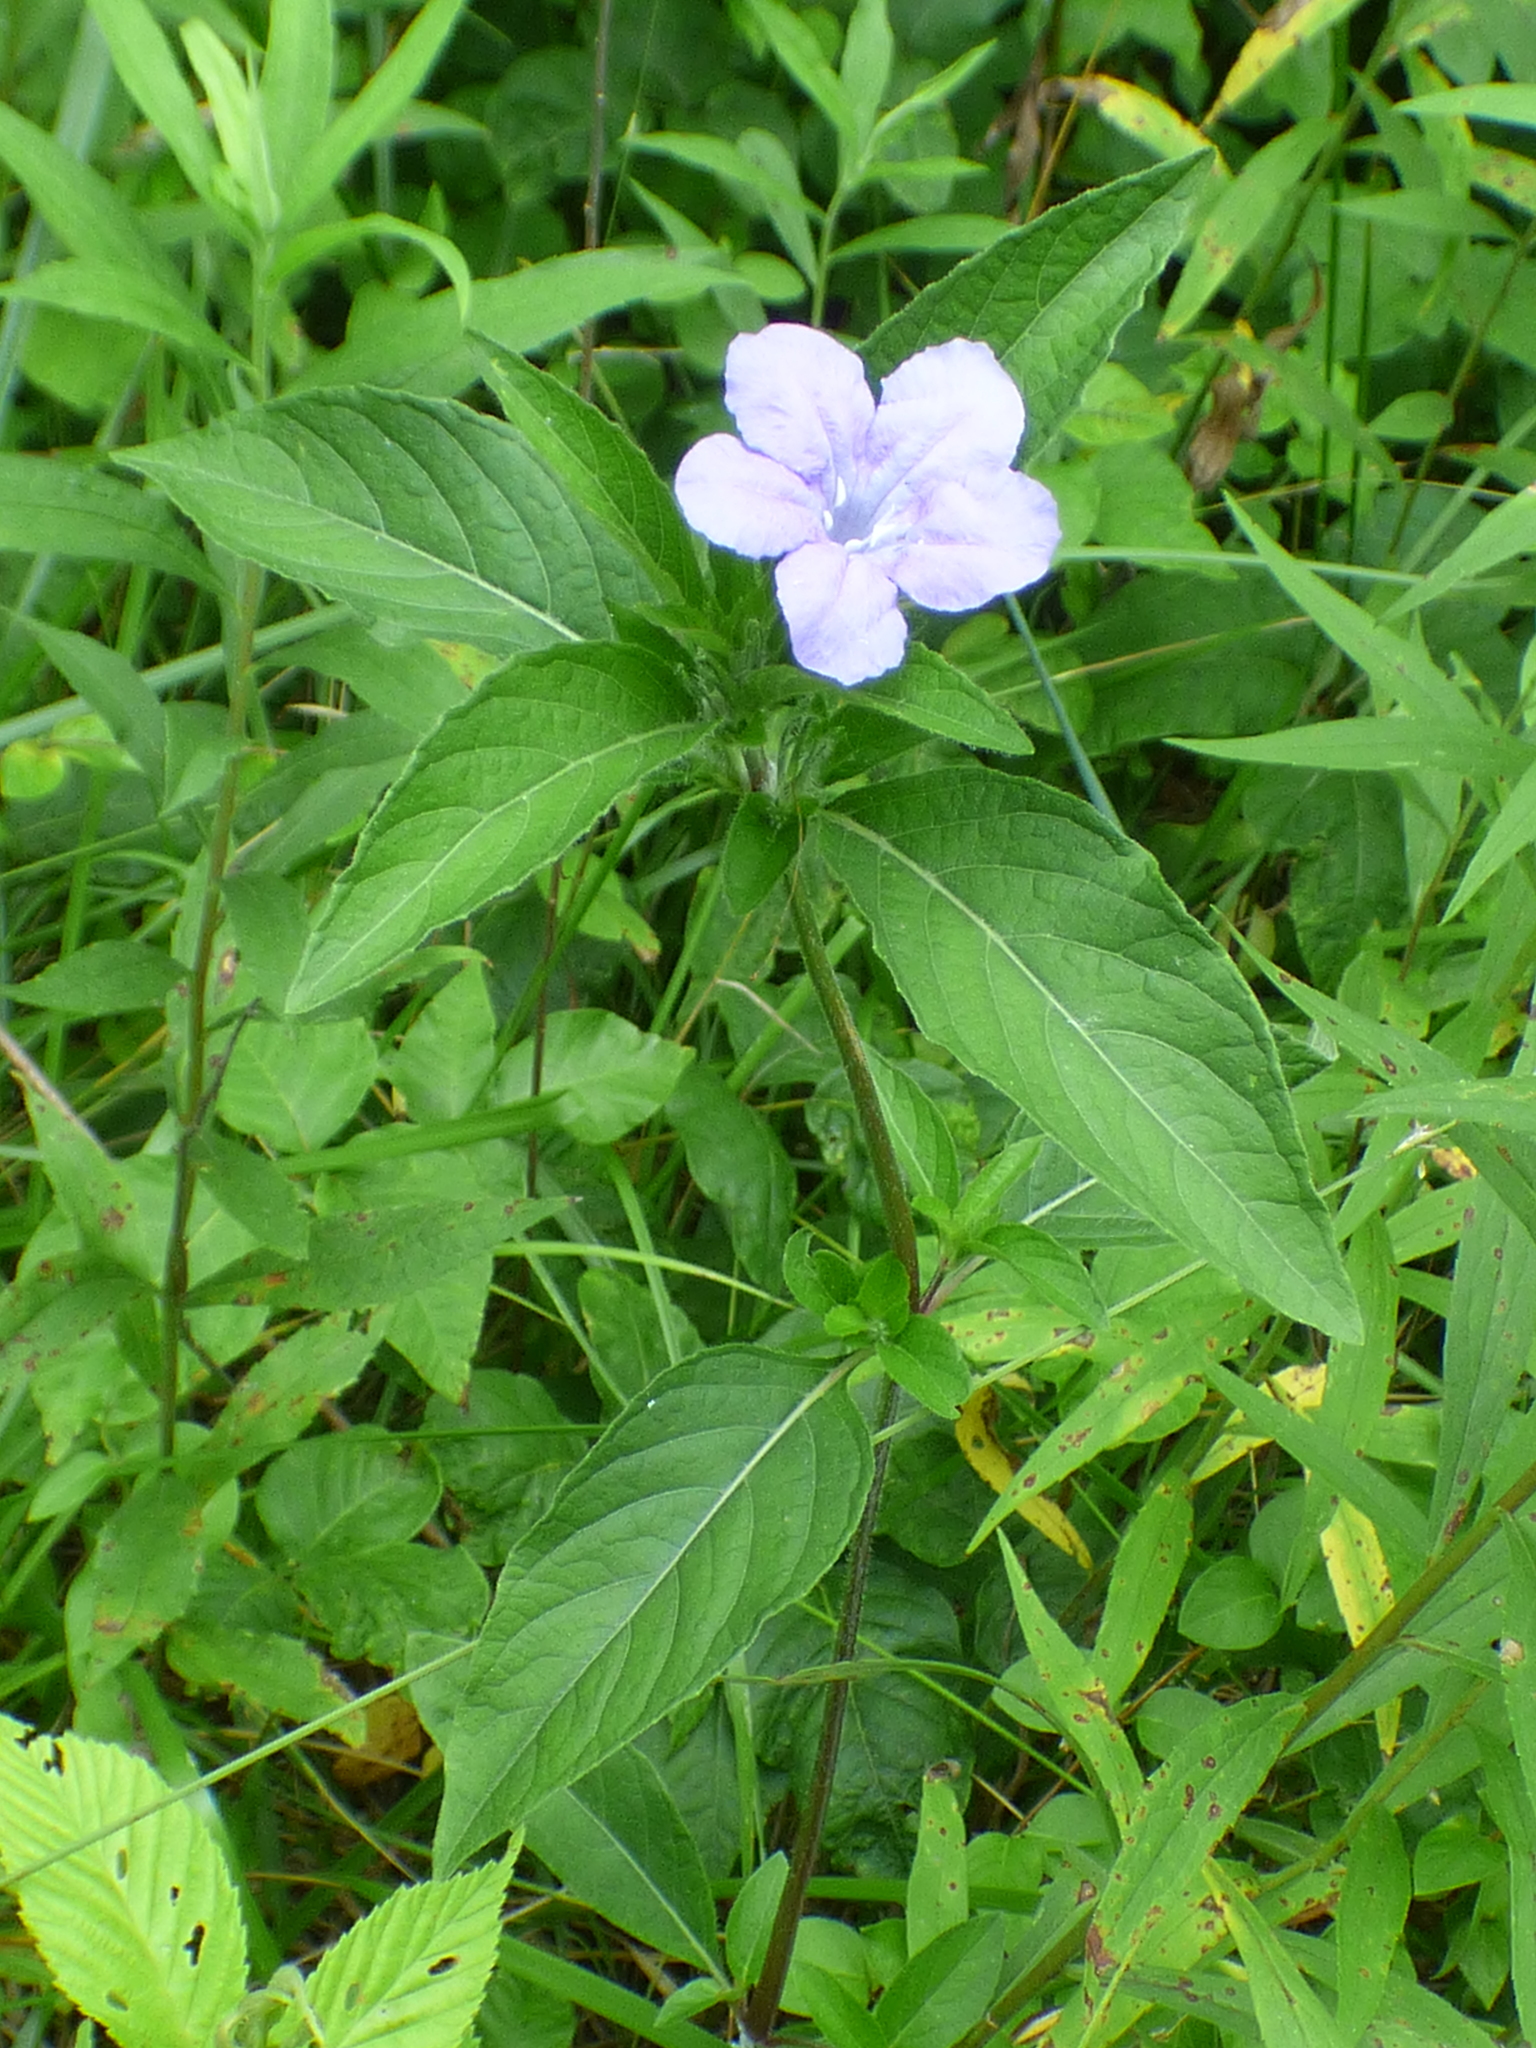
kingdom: Plantae
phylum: Tracheophyta
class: Magnoliopsida
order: Lamiales
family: Acanthaceae
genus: Ruellia
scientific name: Ruellia caroliniensis
